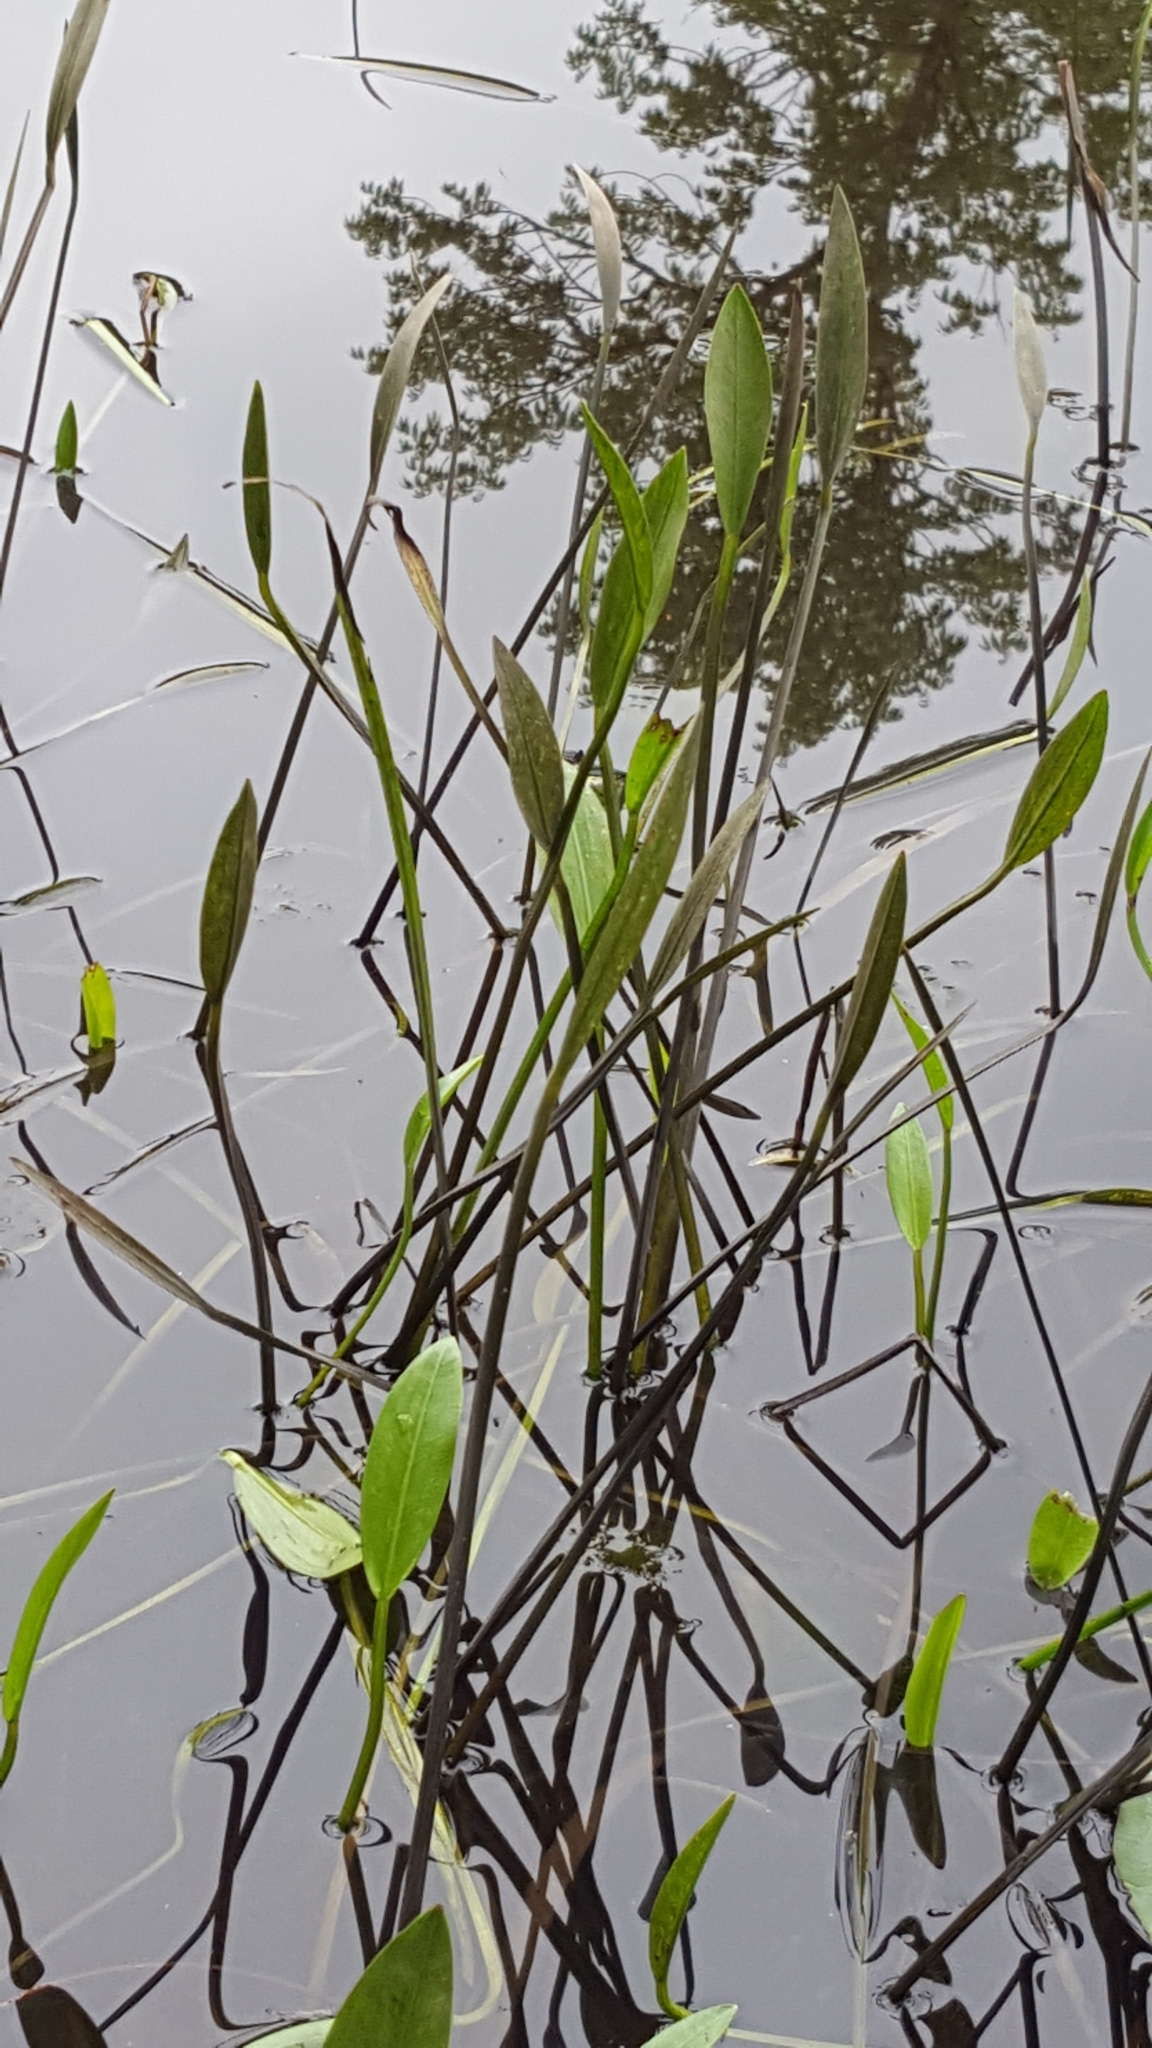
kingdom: Plantae
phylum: Tracheophyta
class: Liliopsida
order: Alismatales
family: Alismataceae
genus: Sagittaria
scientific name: Sagittaria rigida
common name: Canadian arrowhead
